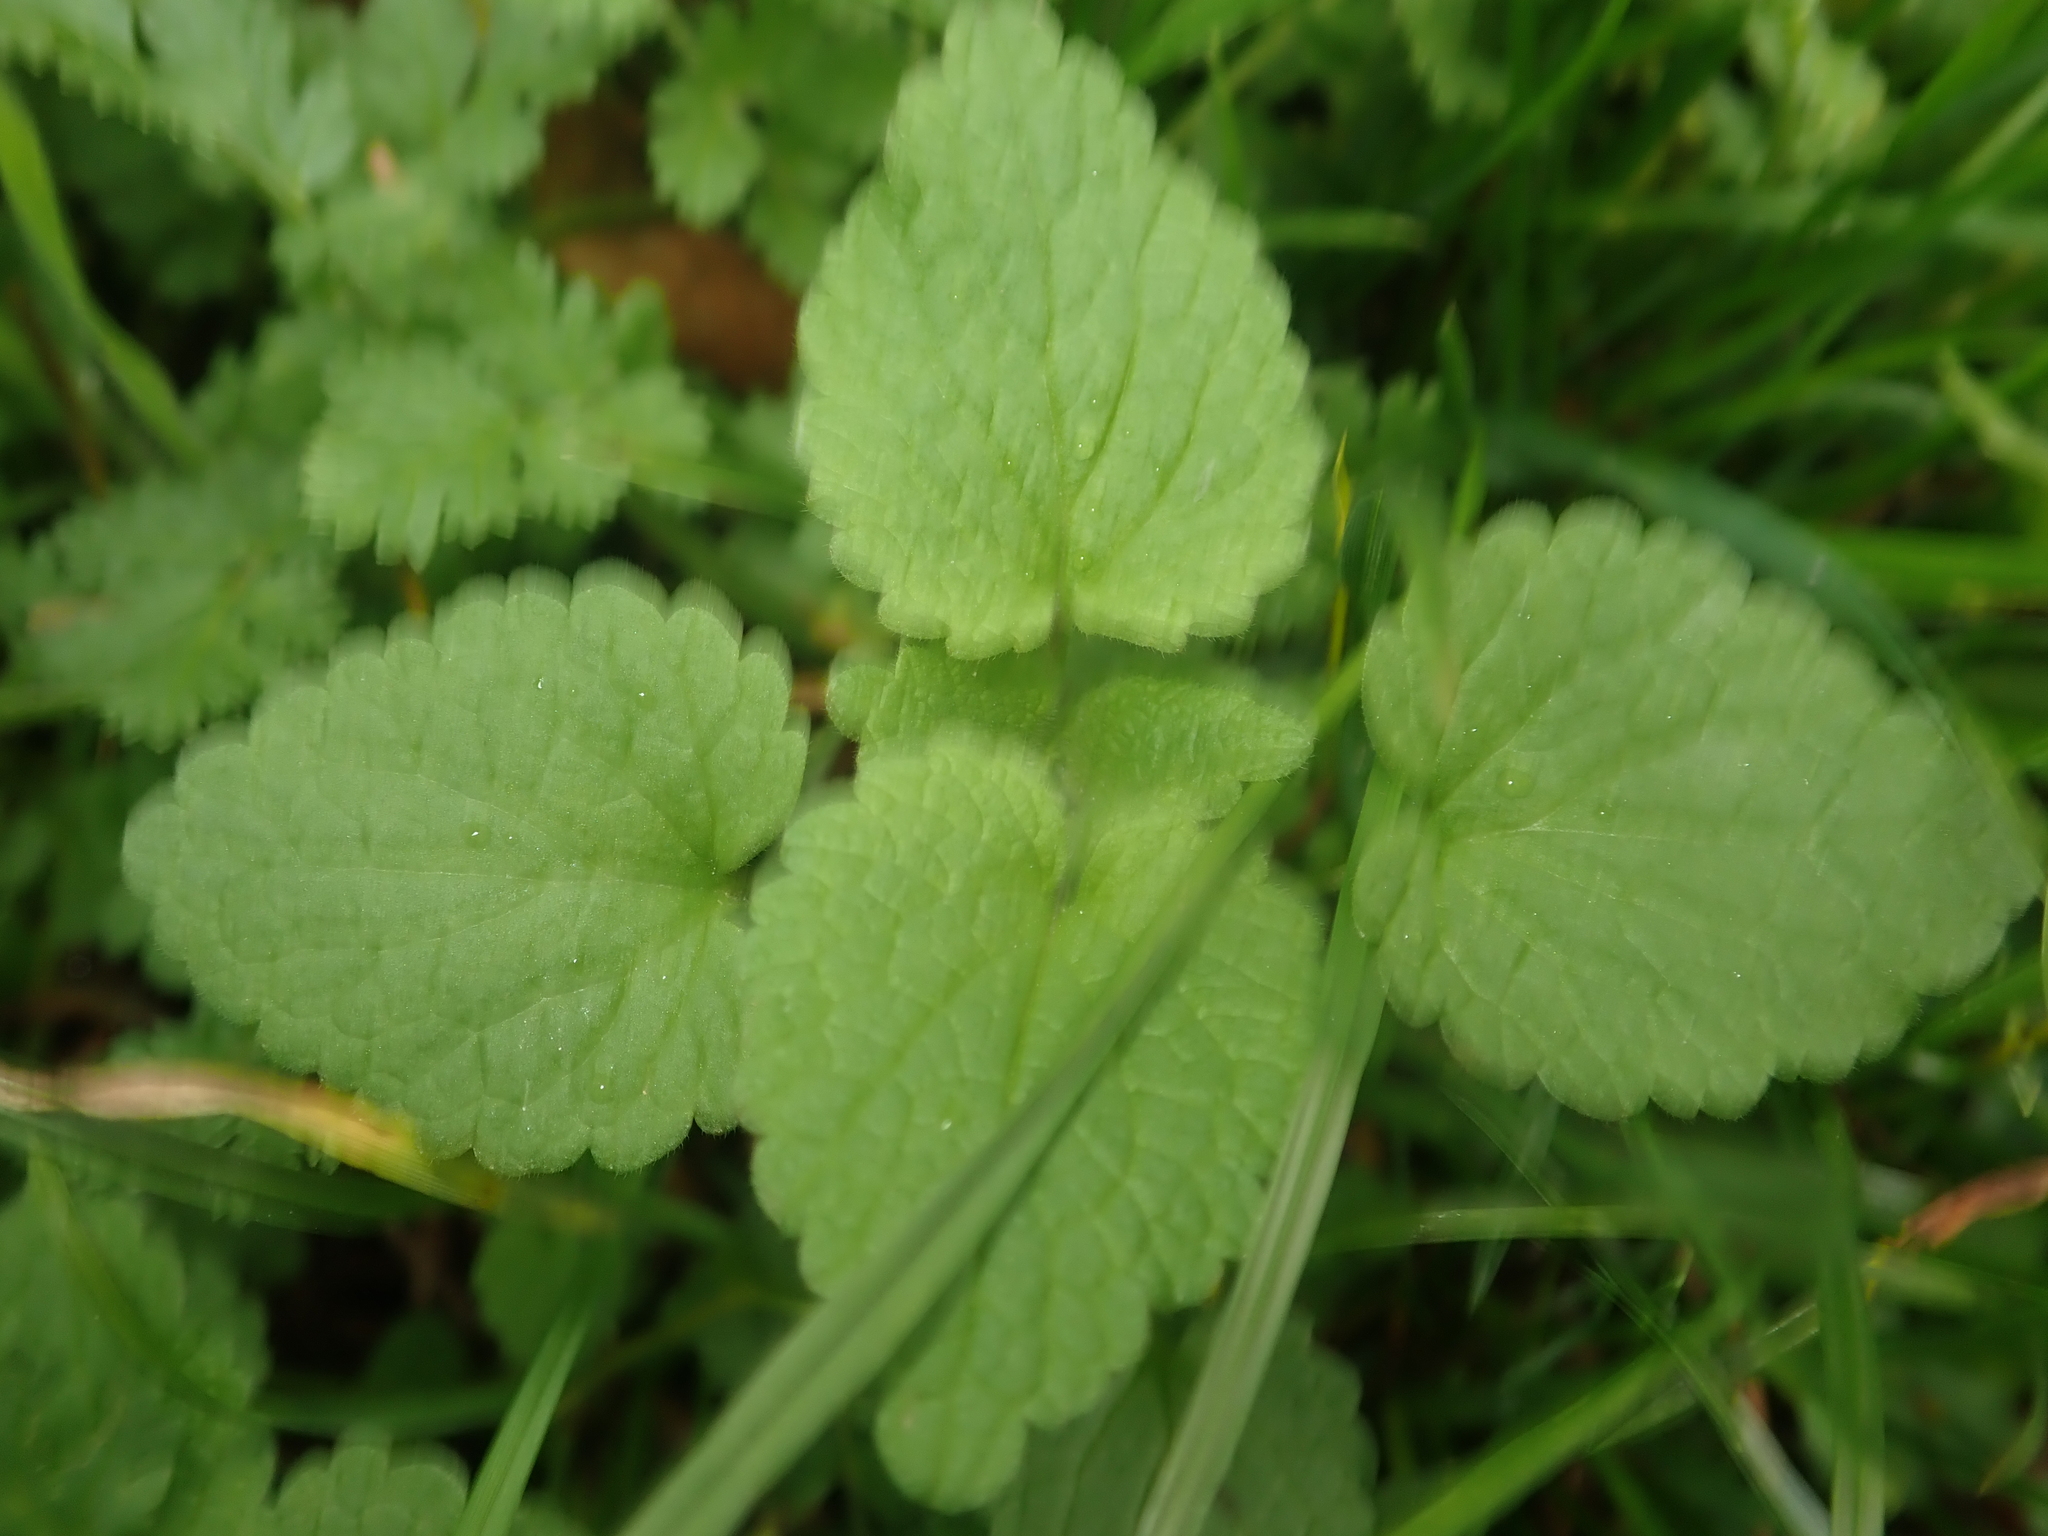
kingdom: Plantae
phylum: Tracheophyta
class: Magnoliopsida
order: Lamiales
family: Lamiaceae
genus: Lamium
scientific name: Lamium purpureum
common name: Red dead-nettle
